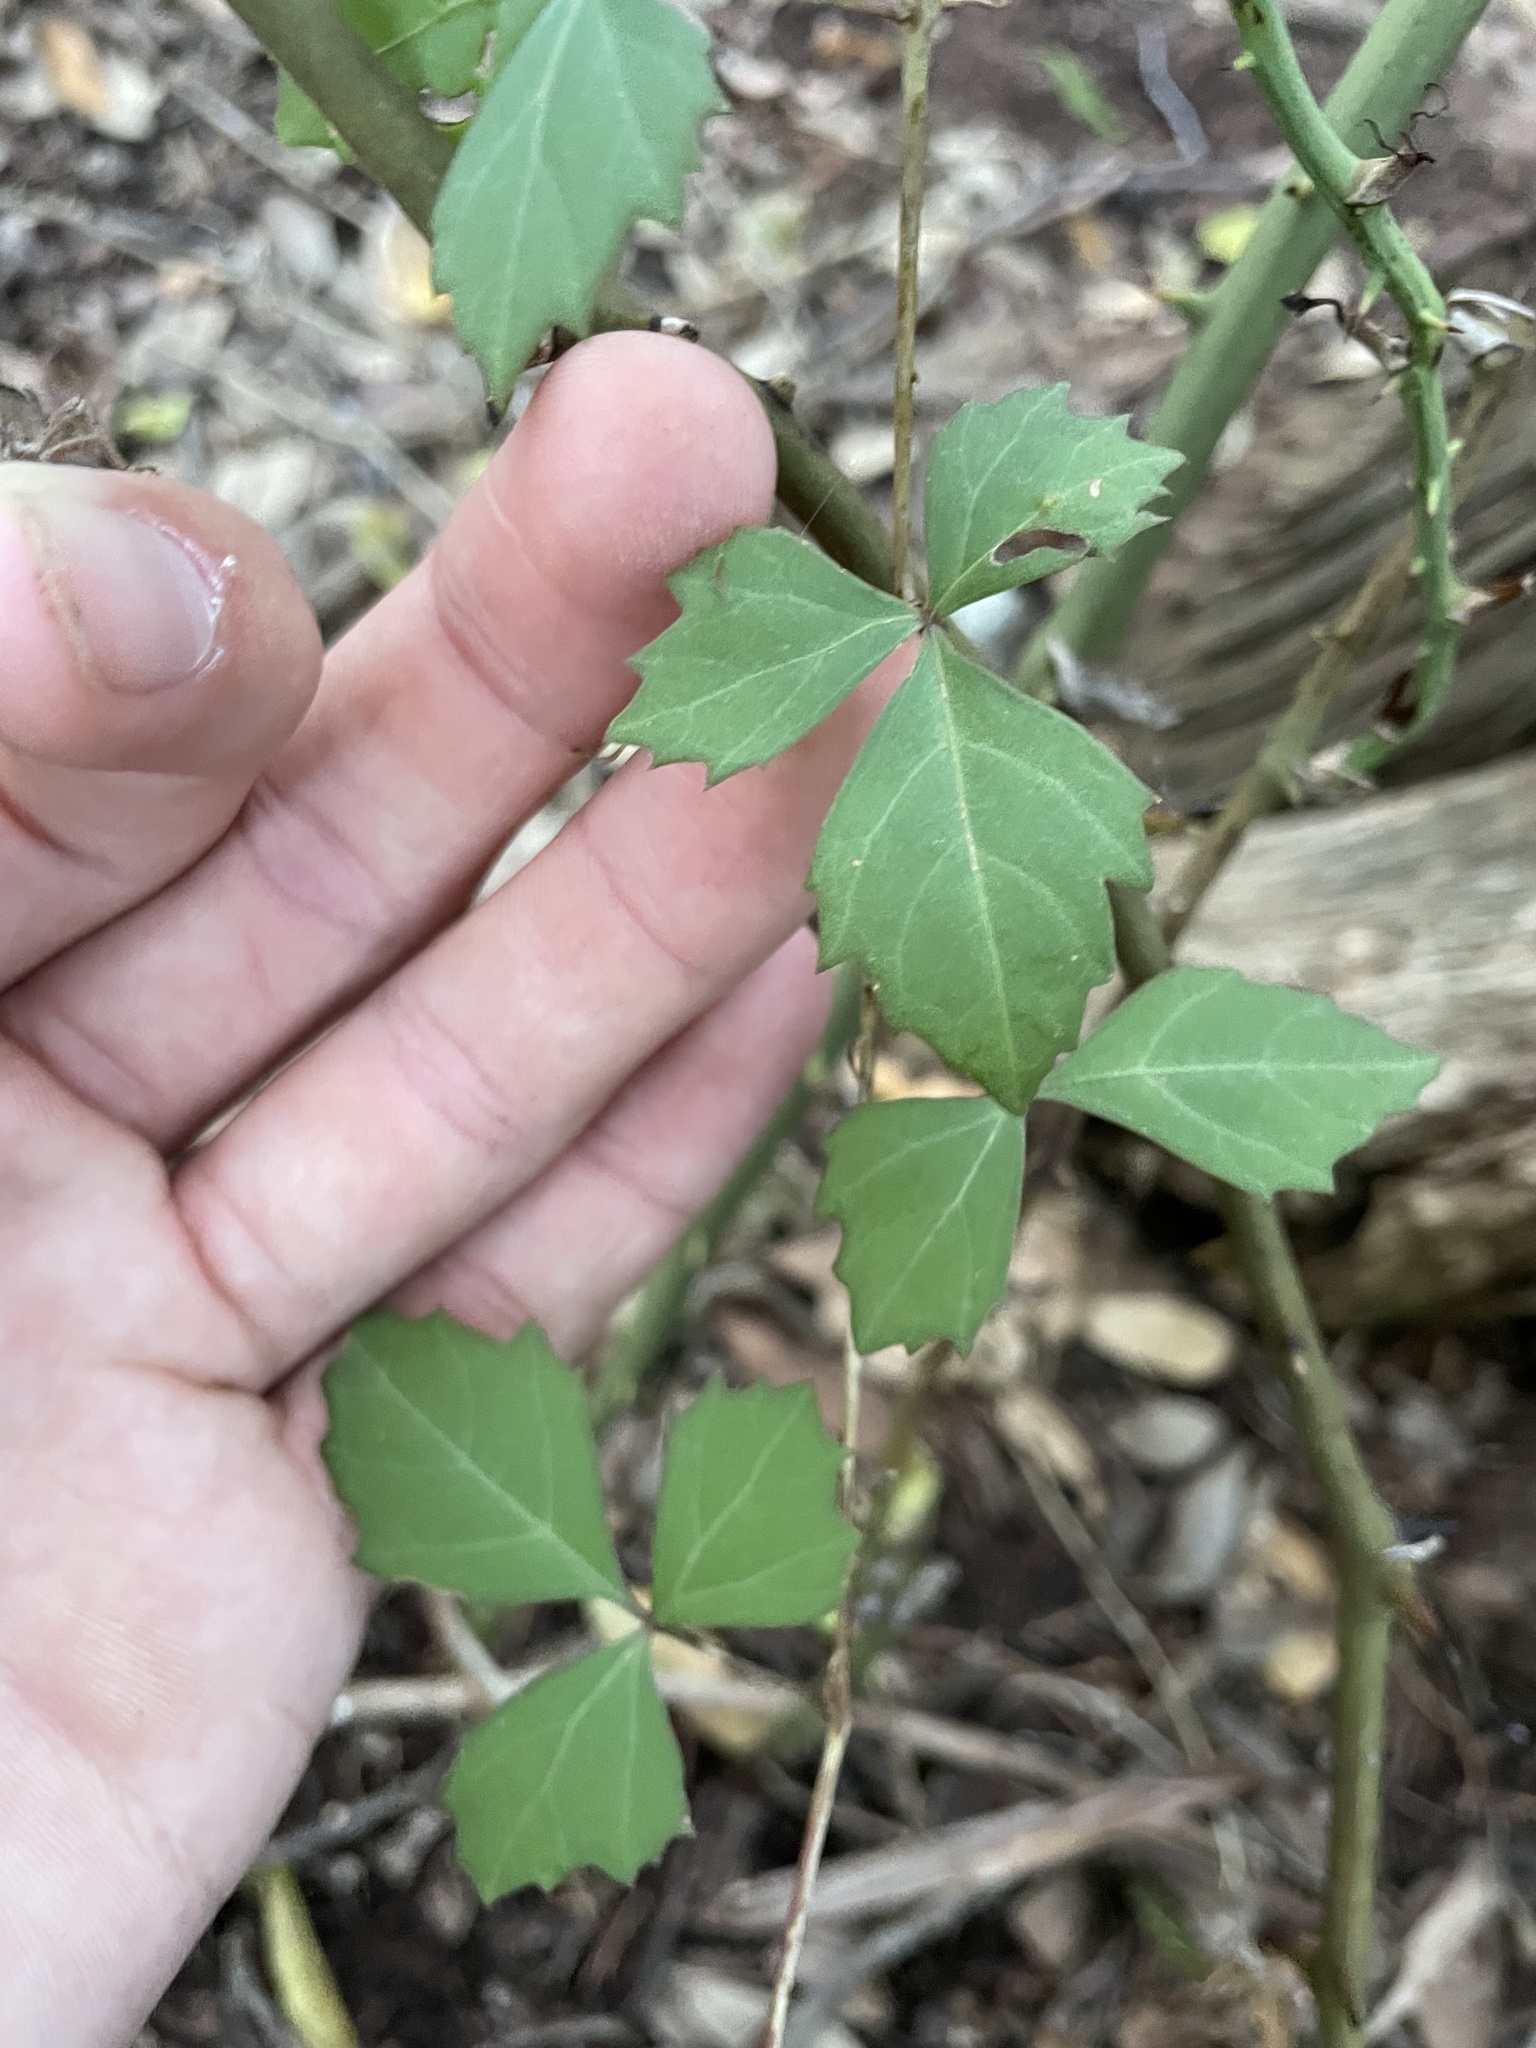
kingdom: Plantae
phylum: Tracheophyta
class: Magnoliopsida
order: Vitales
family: Vitaceae
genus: Cissus
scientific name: Cissus trifoliata
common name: Vine-sorrel
